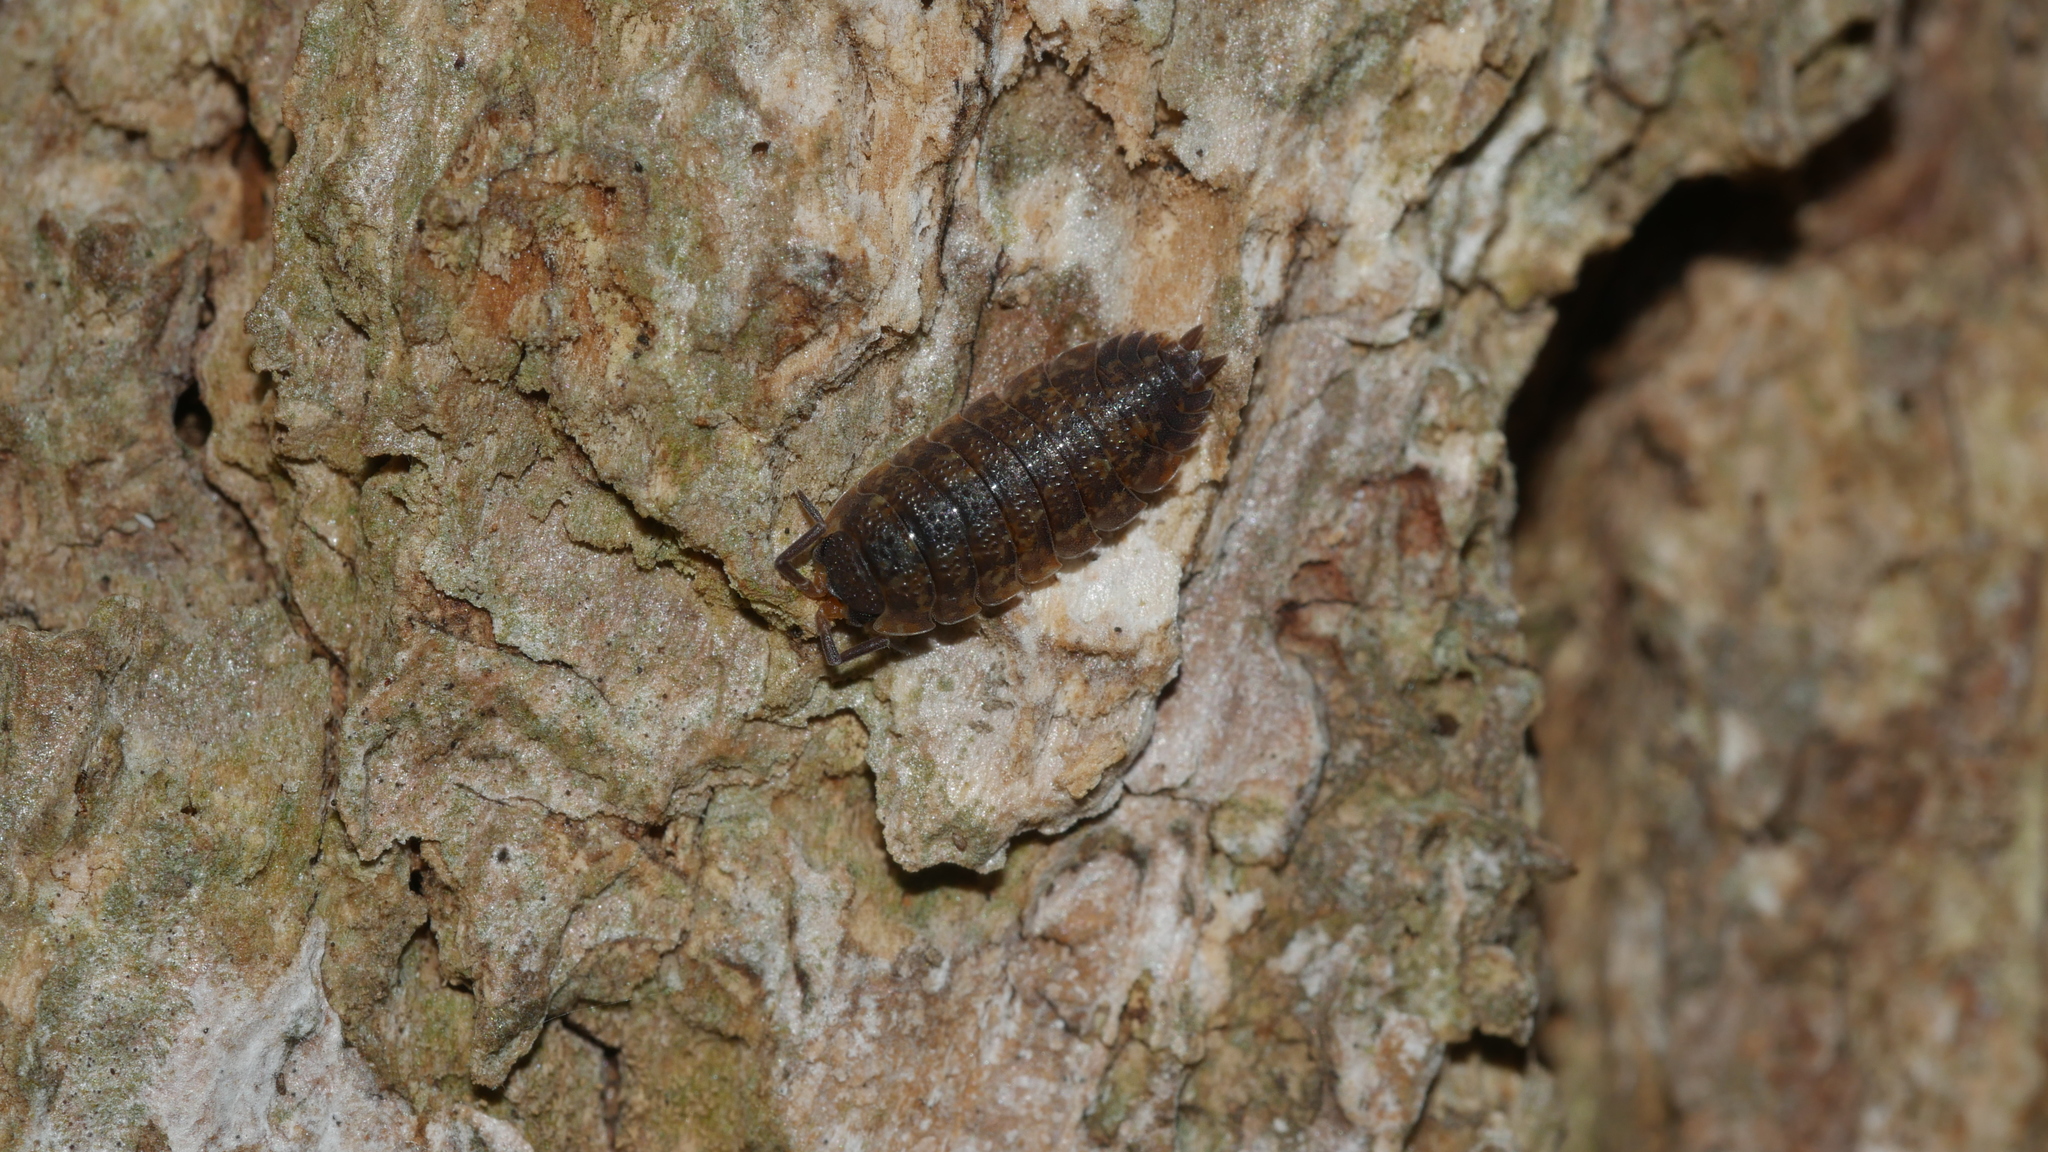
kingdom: Animalia
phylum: Arthropoda
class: Malacostraca
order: Isopoda
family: Porcellionidae
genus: Porcellio
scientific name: Porcellio scaber
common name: Common rough woodlouse
